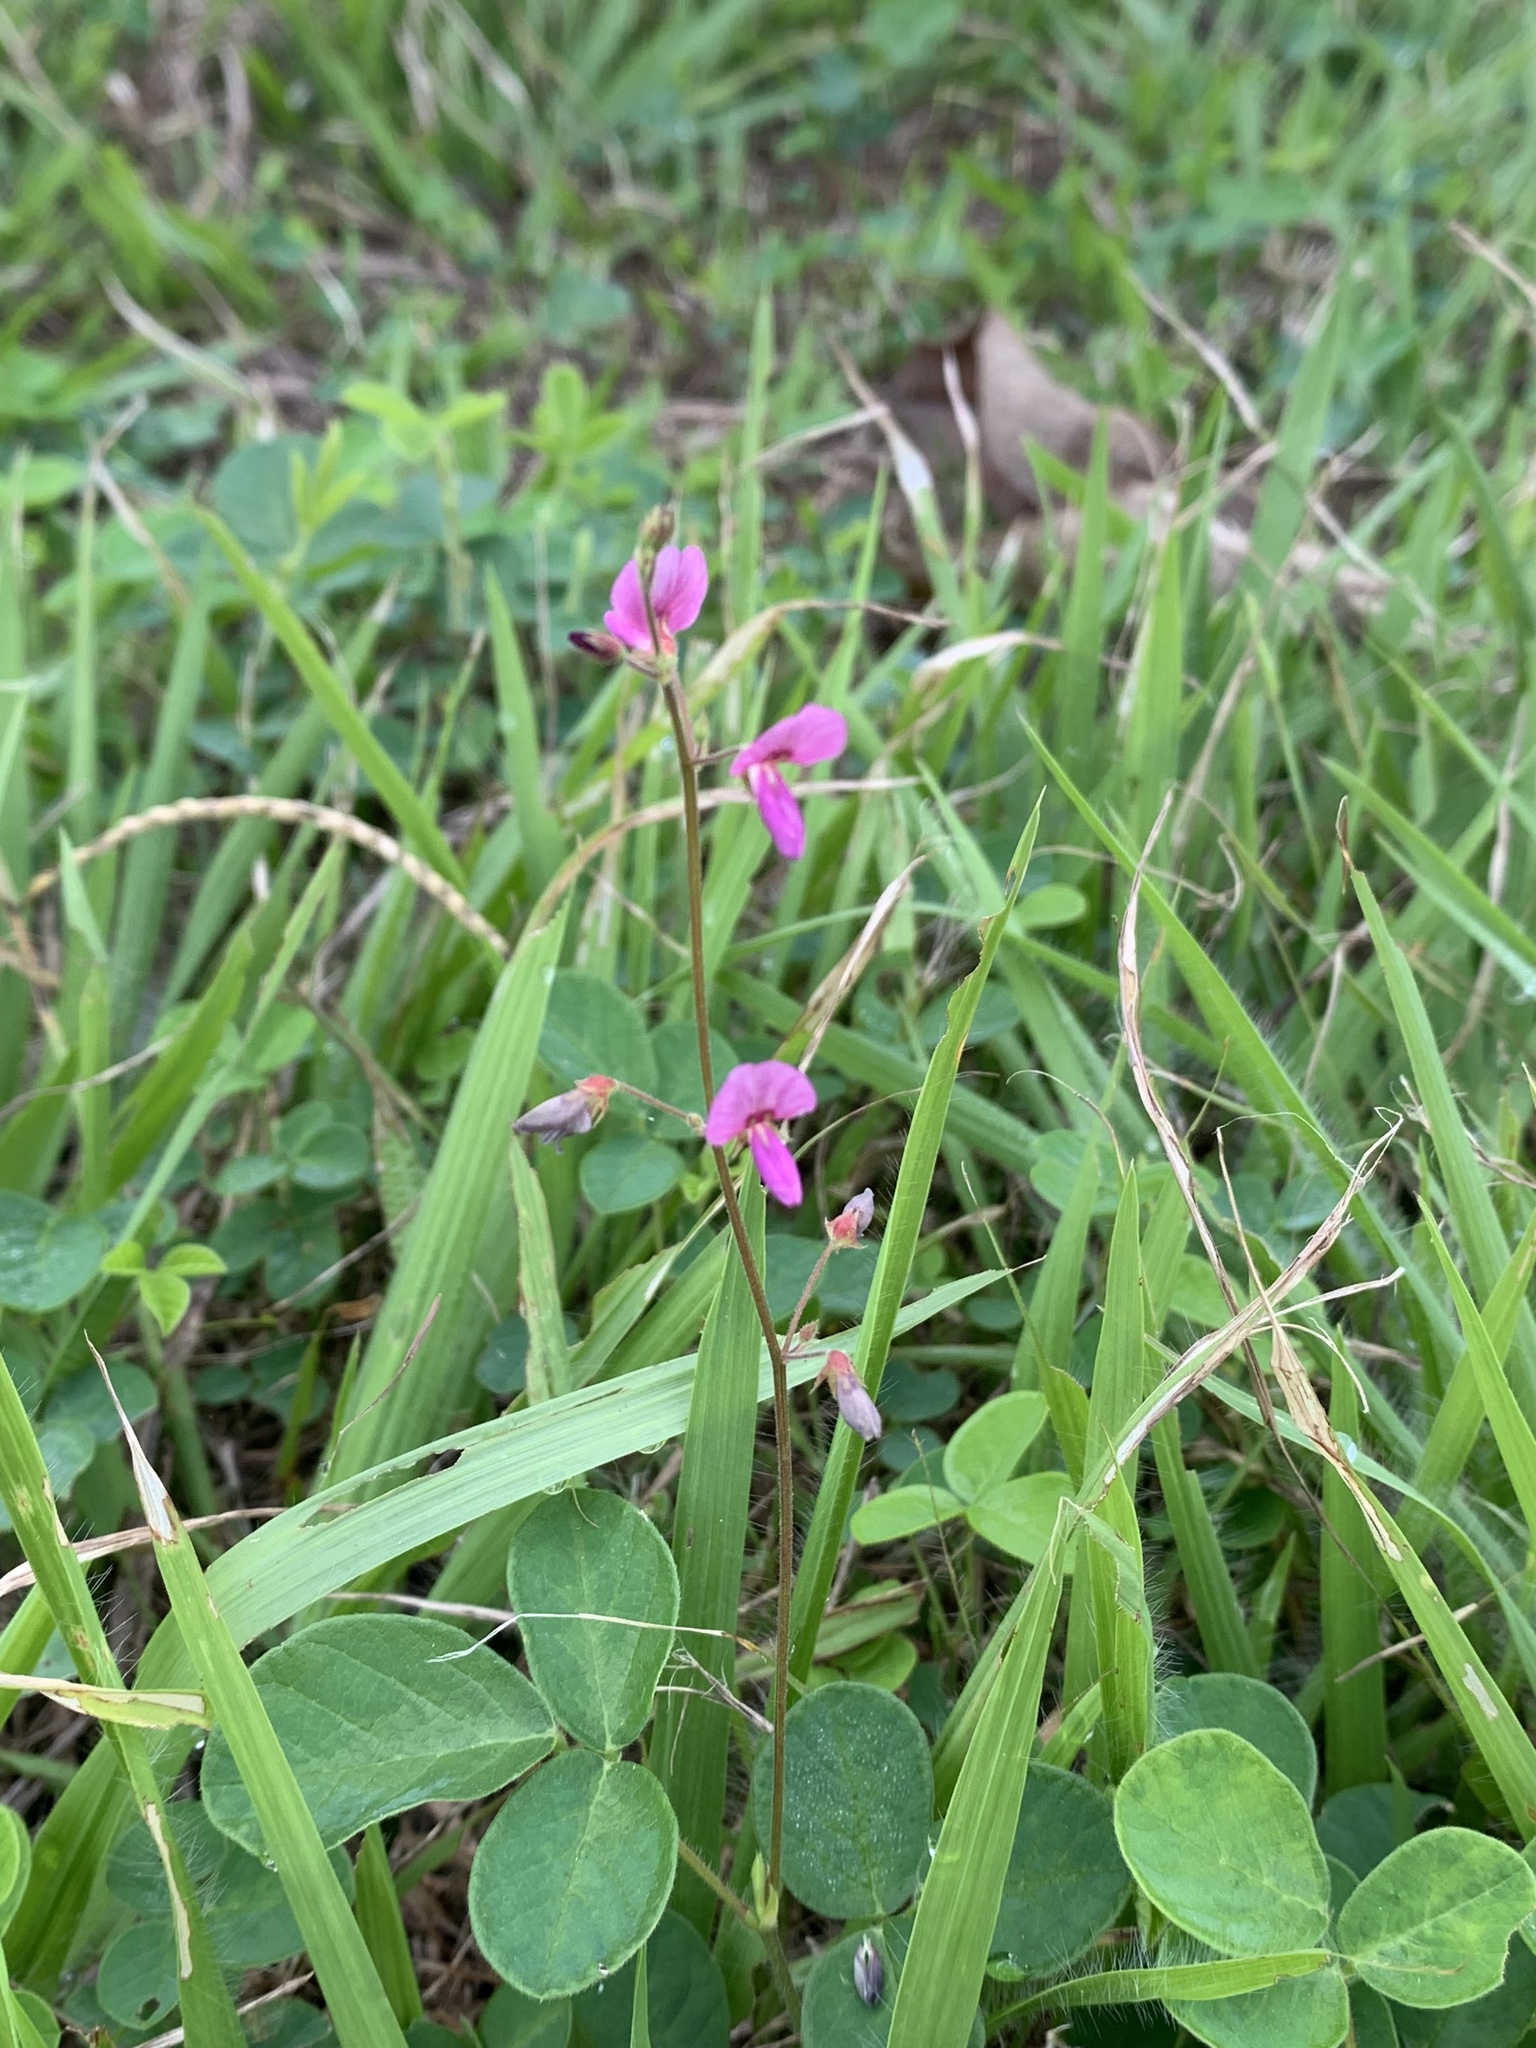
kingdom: Plantae
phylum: Tracheophyta
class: Magnoliopsida
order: Fabales
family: Fabaceae
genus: Desmodium
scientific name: Desmodium incanum
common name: Tickclover
